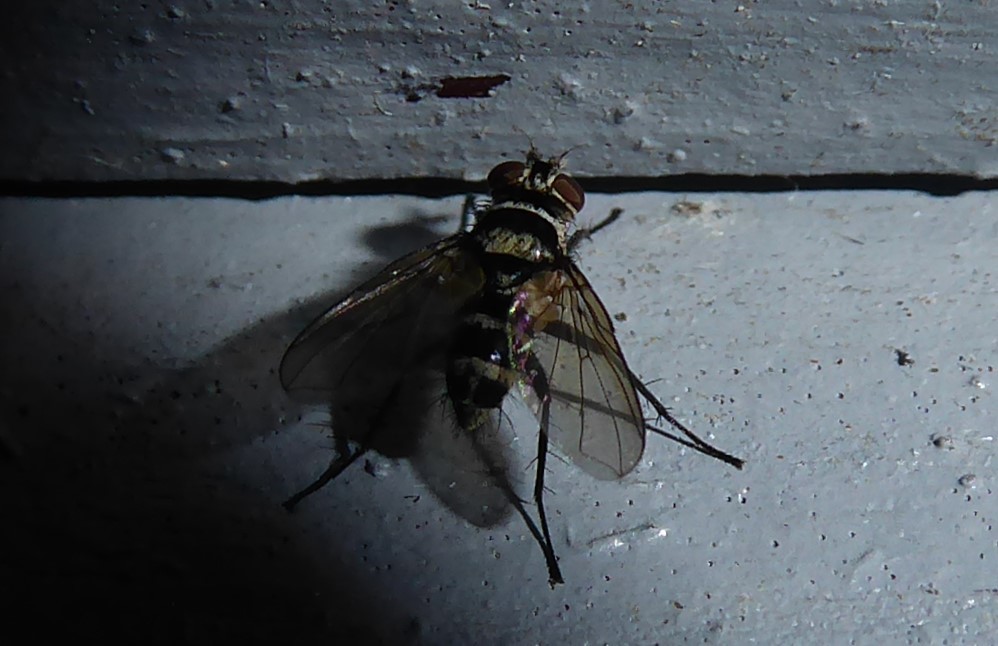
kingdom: Animalia
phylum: Arthropoda
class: Insecta
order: Diptera
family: Tachinidae
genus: Trigonospila
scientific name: Trigonospila brevifacies
